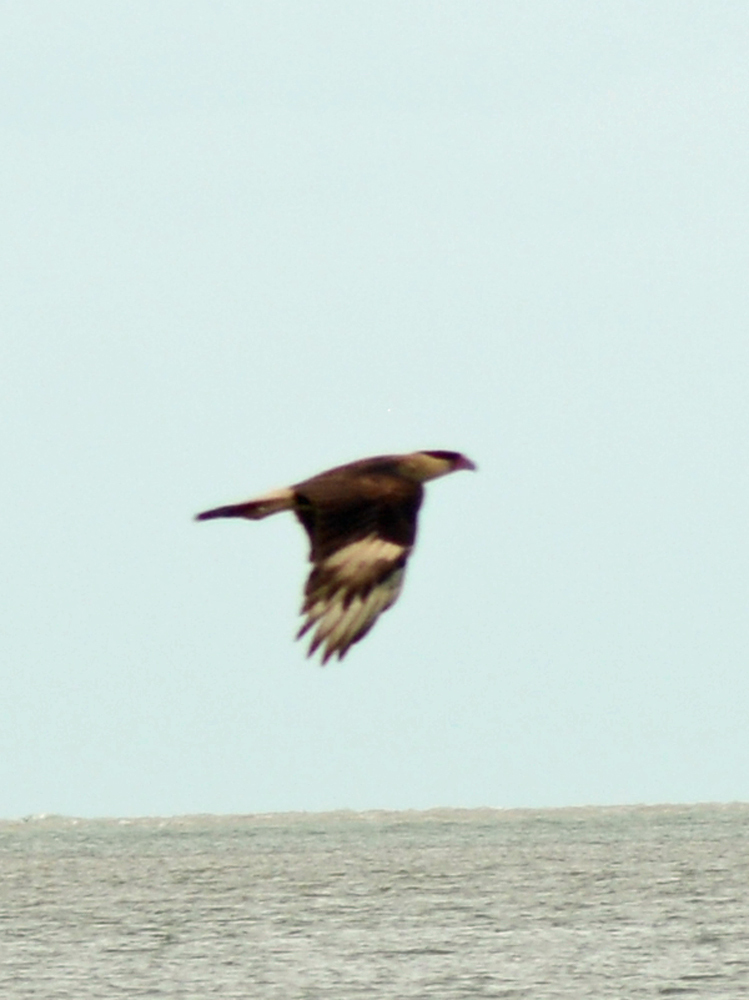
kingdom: Animalia
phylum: Chordata
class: Aves
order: Falconiformes
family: Falconidae
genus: Caracara
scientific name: Caracara plancus
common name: Southern caracara
